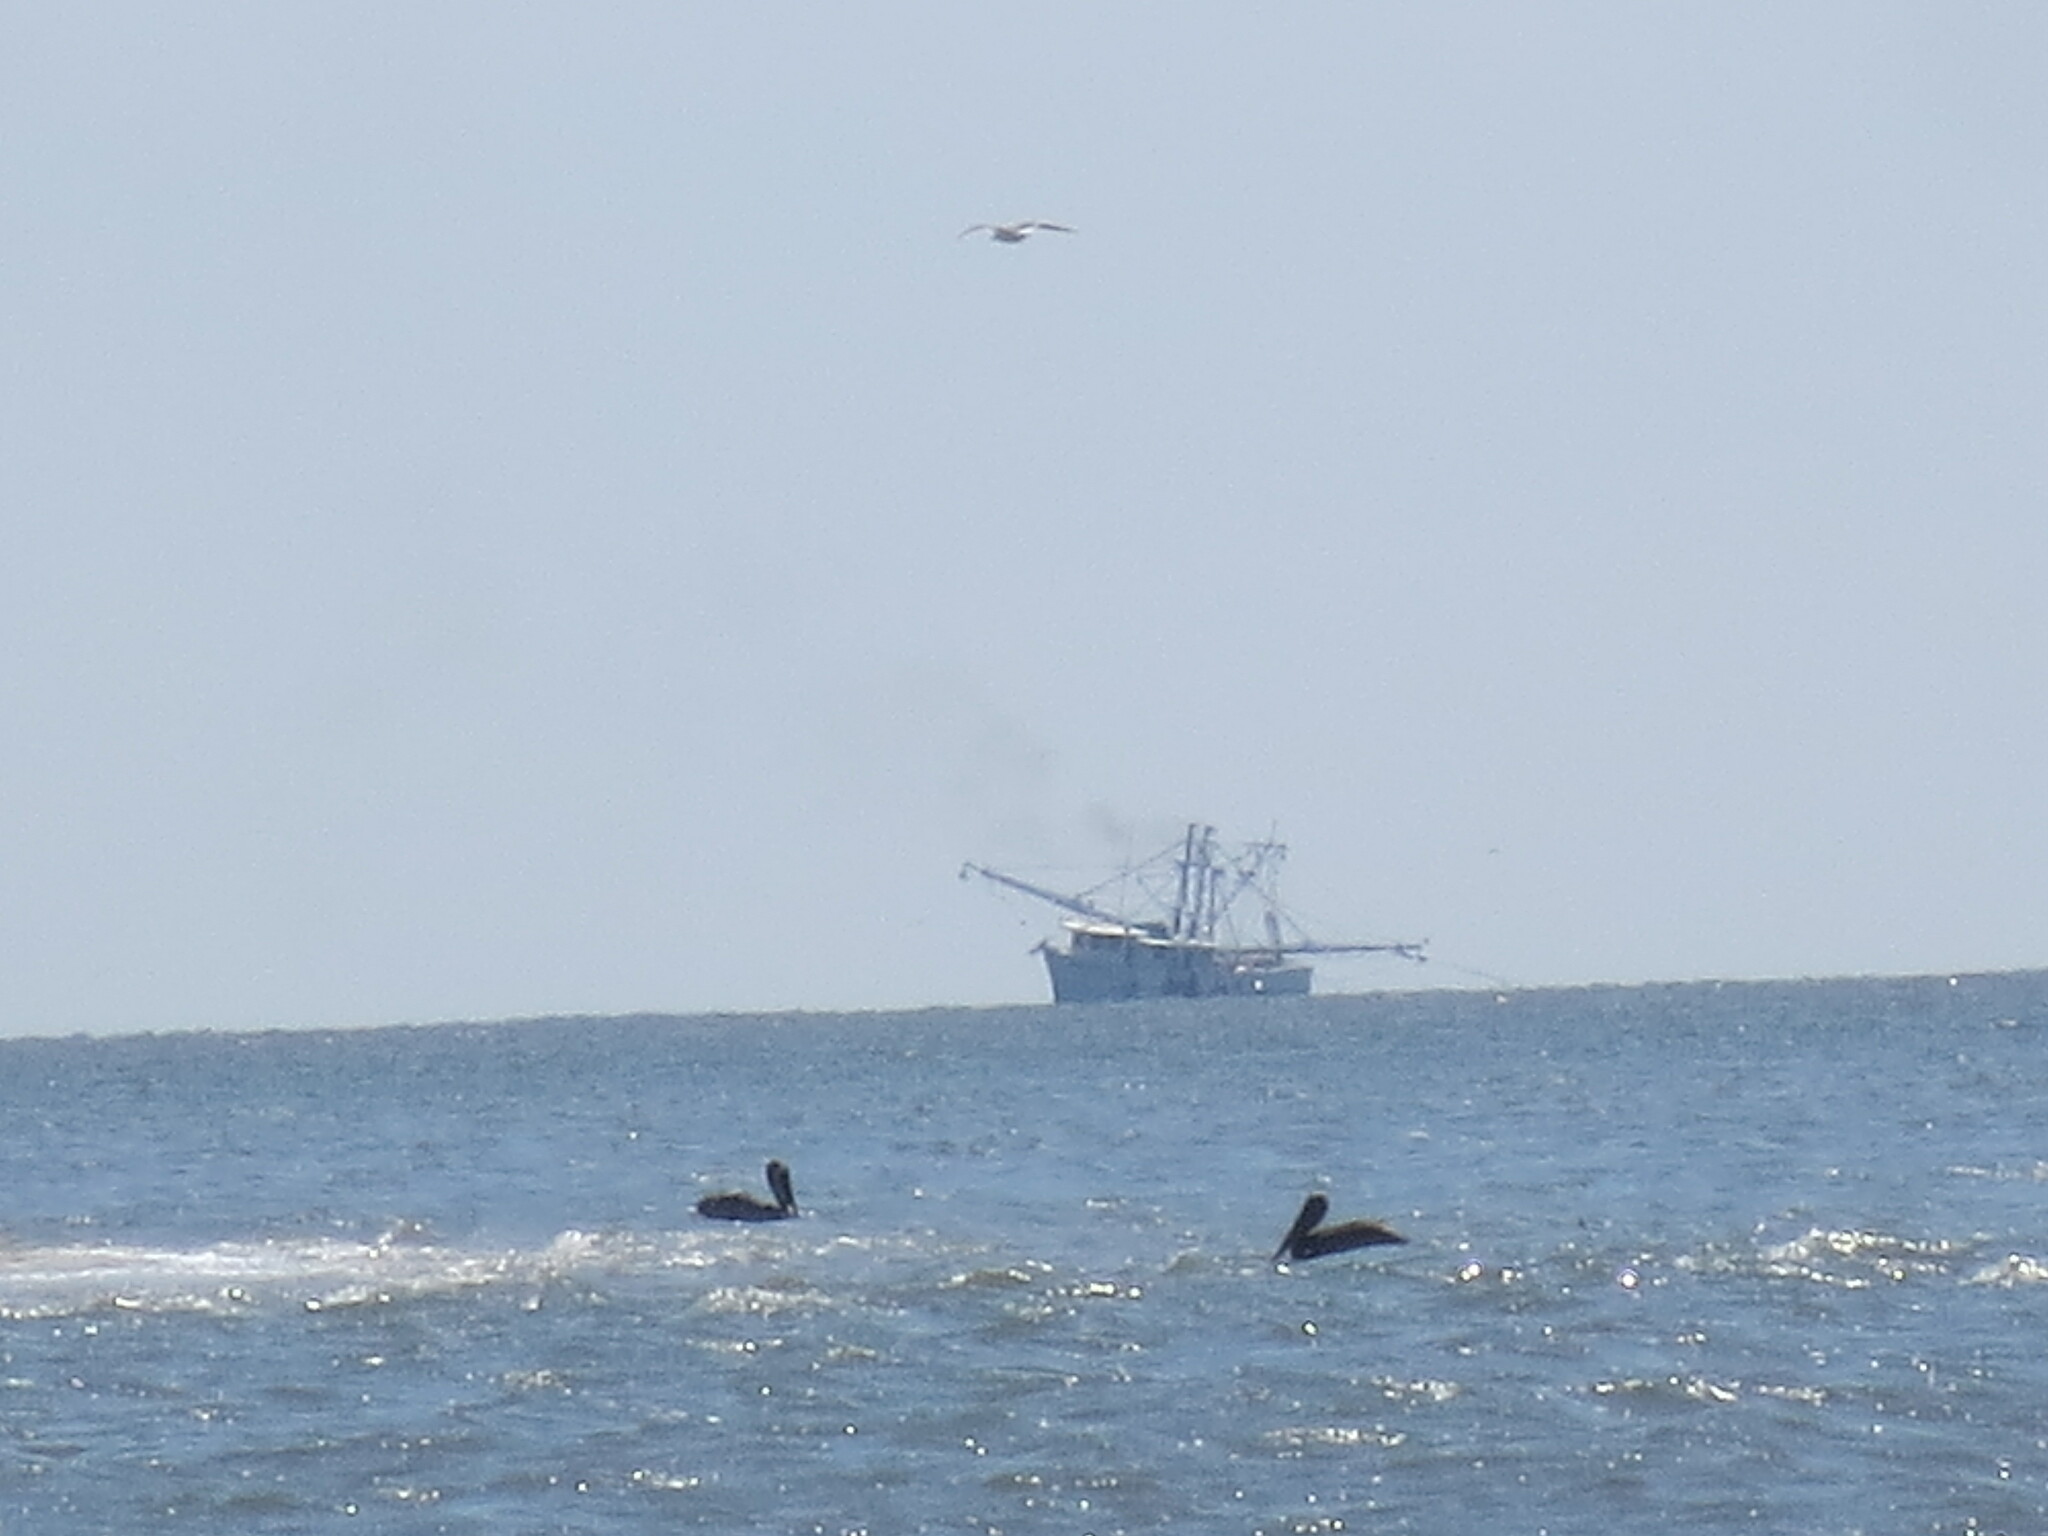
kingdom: Animalia
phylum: Chordata
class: Aves
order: Pelecaniformes
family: Pelecanidae
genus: Pelecanus
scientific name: Pelecanus occidentalis
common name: Brown pelican
